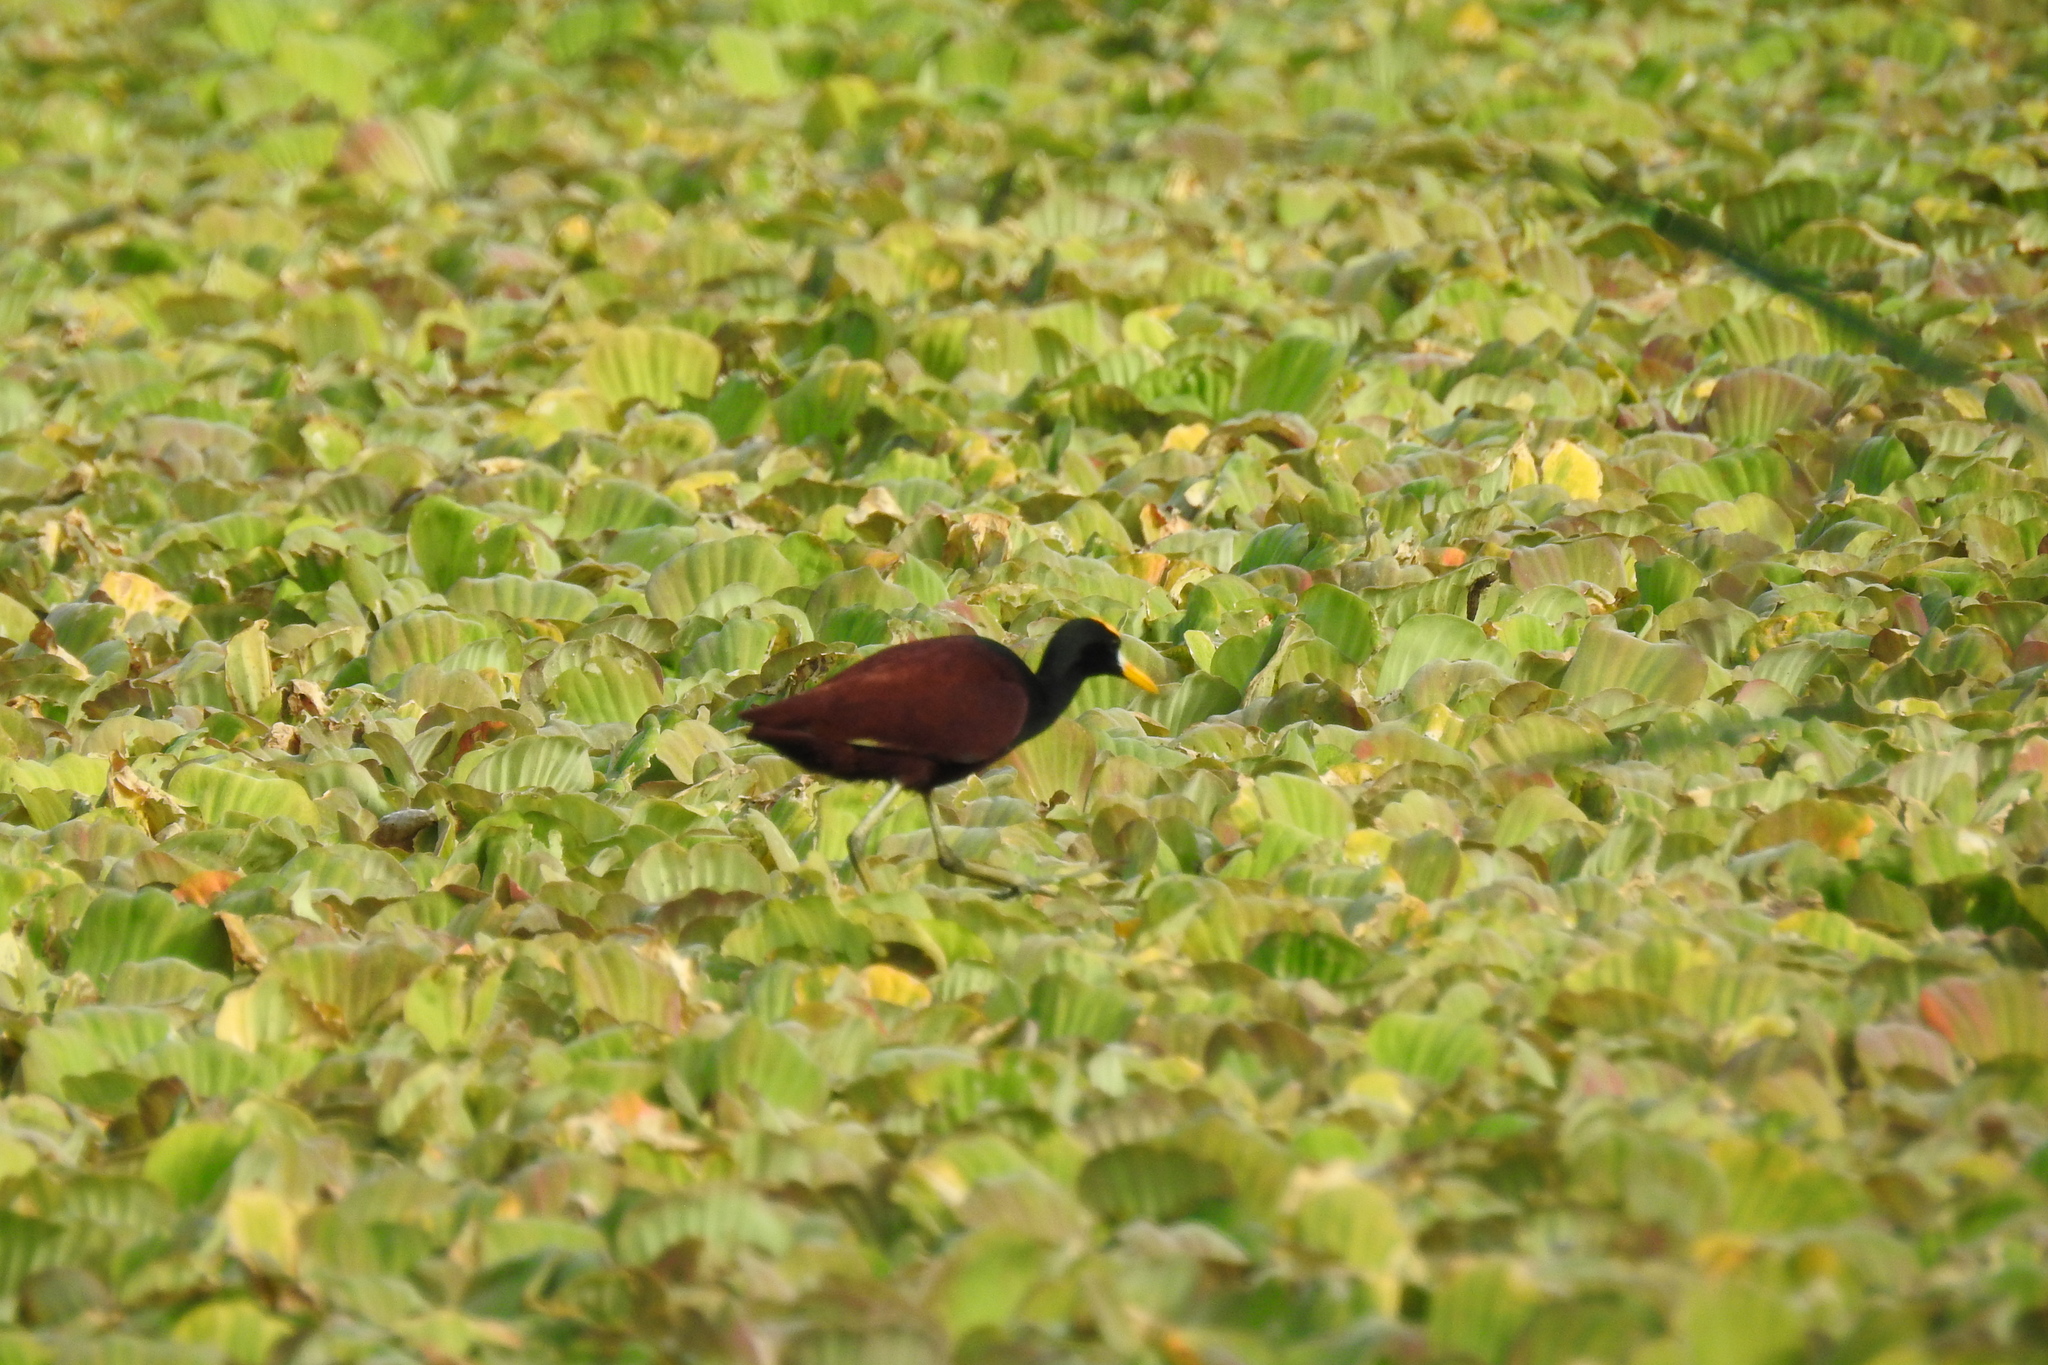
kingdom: Animalia
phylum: Chordata
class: Aves
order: Charadriiformes
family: Jacanidae
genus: Jacana
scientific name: Jacana spinosa
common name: Northern jacana
